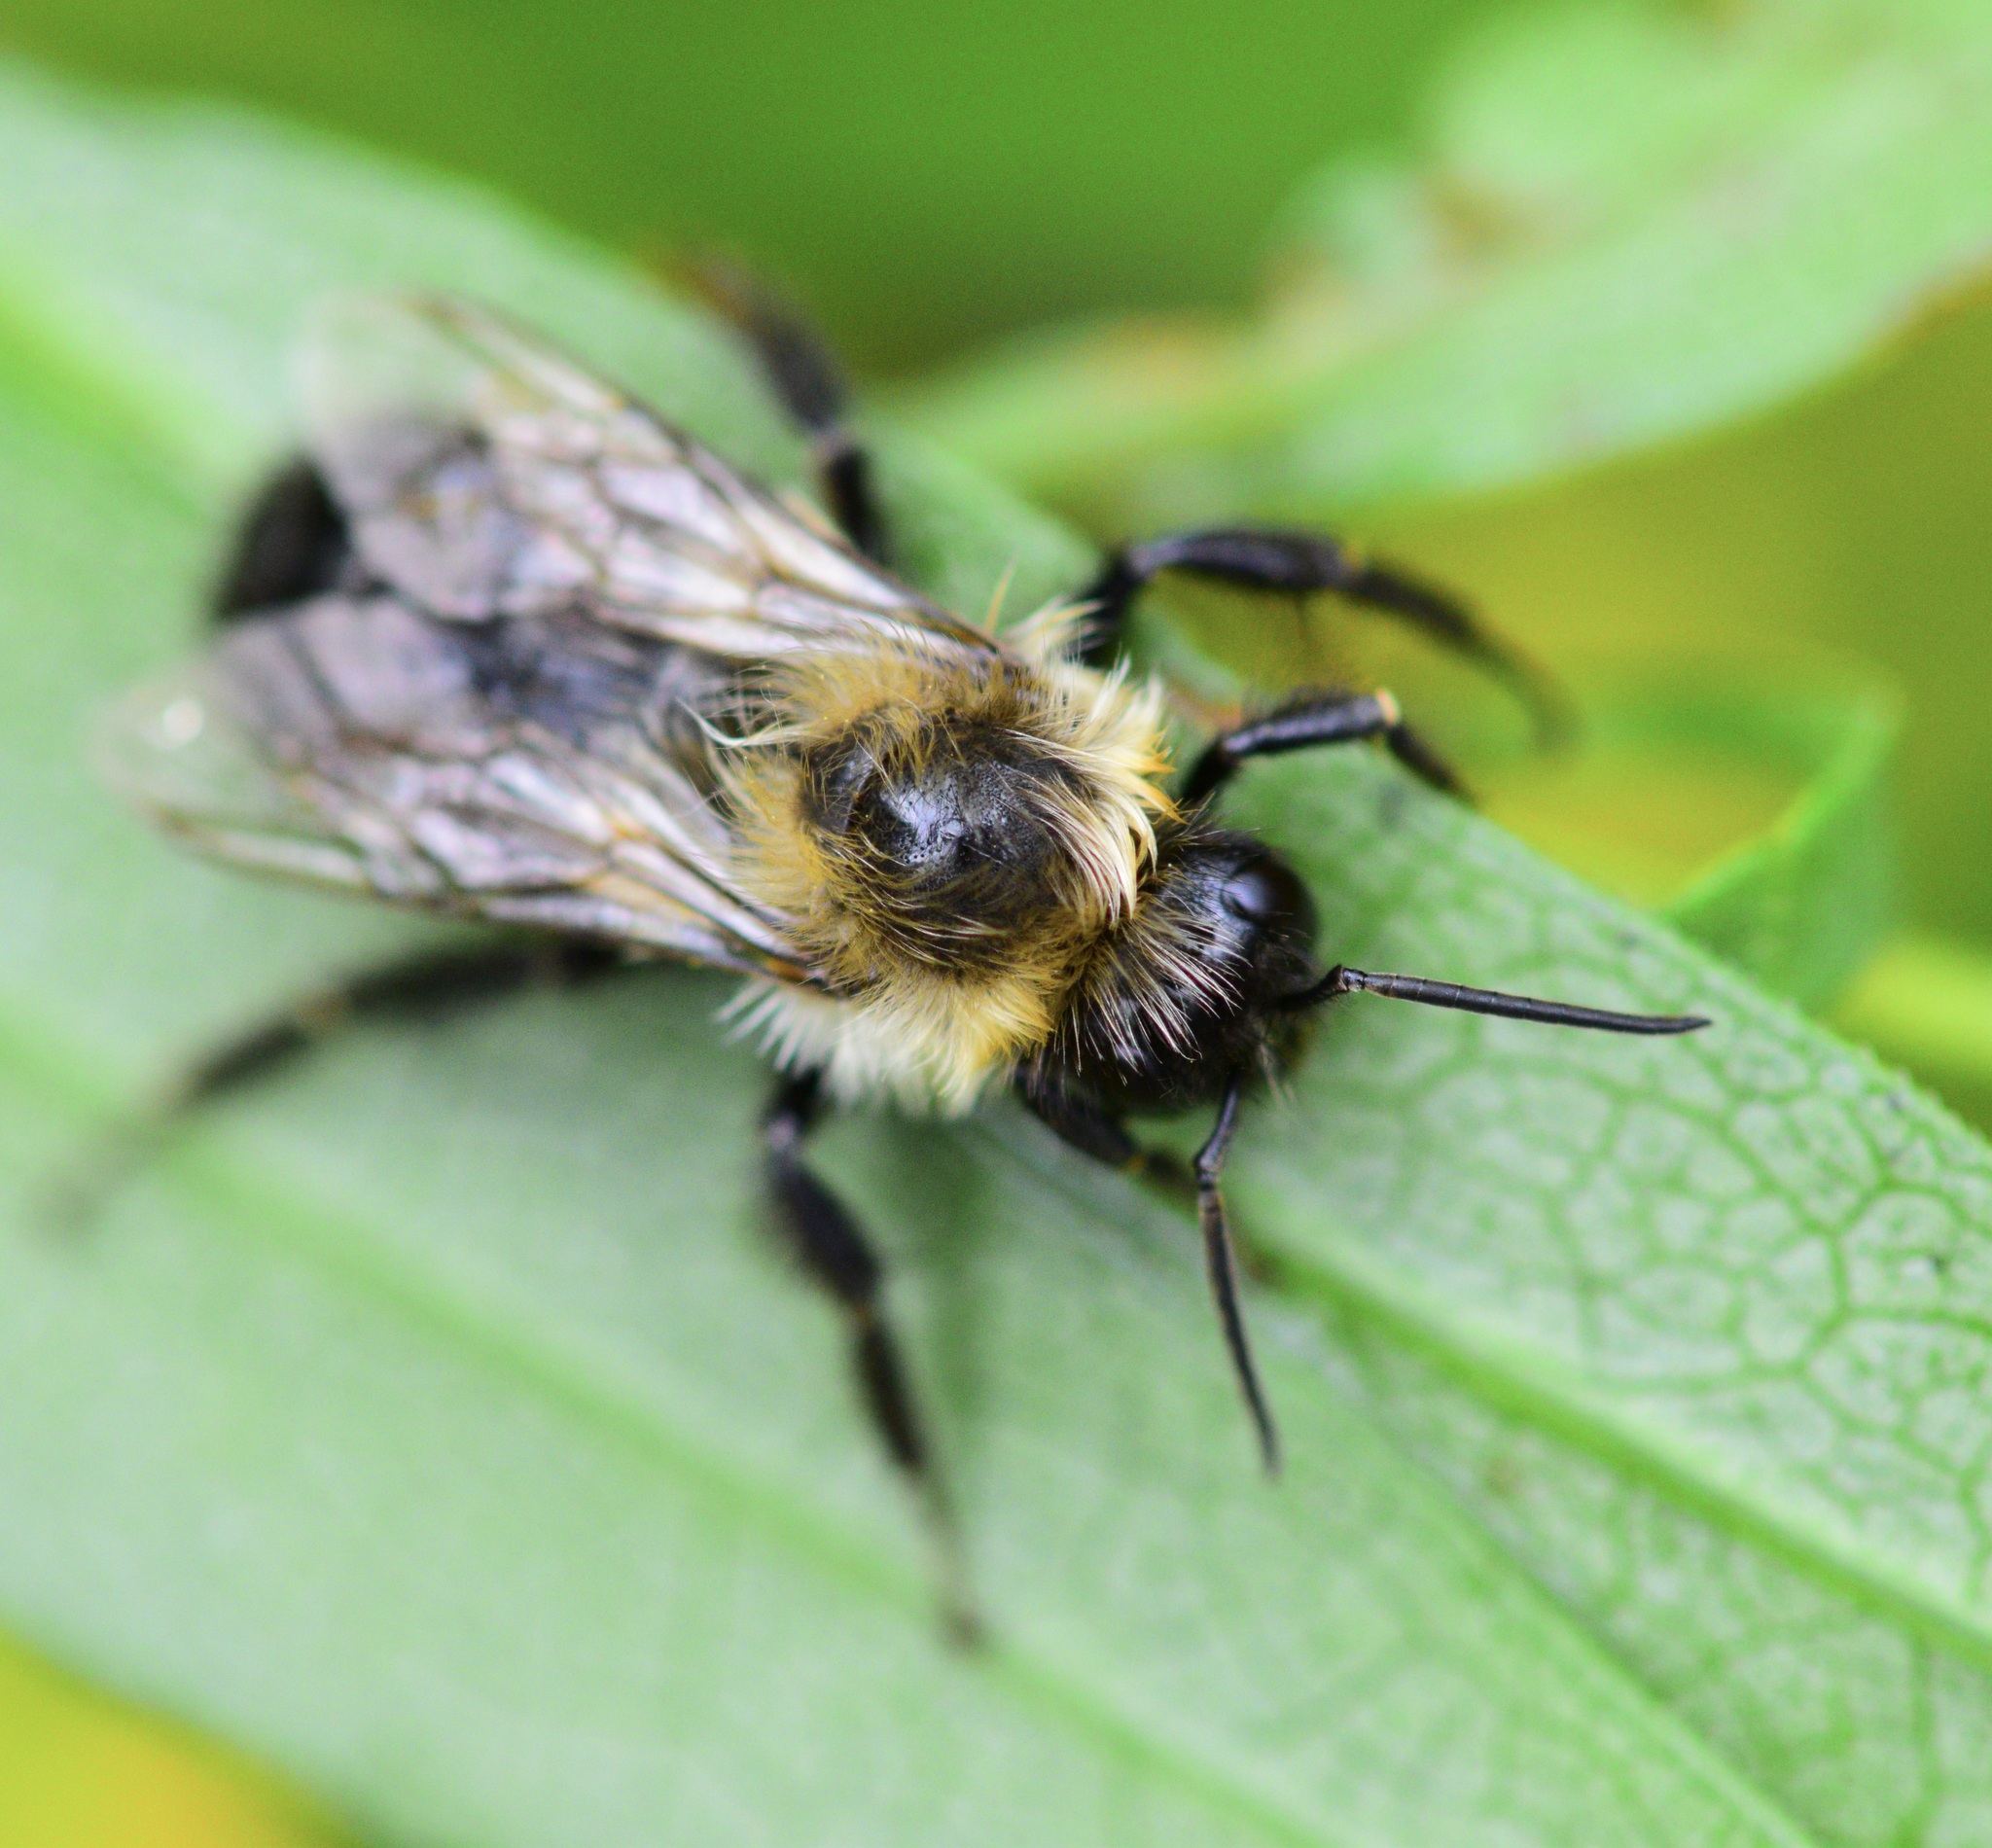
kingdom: Animalia
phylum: Arthropoda
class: Insecta
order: Hymenoptera
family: Apidae
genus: Bombus
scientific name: Bombus impatiens
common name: Common eastern bumble bee
